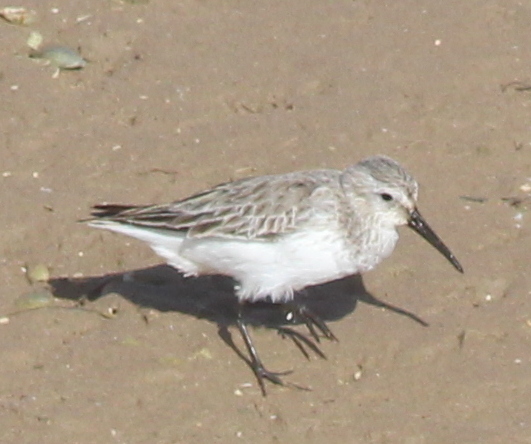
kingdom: Animalia
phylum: Chordata
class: Aves
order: Charadriiformes
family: Scolopacidae
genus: Calidris
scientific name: Calidris alpina
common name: Dunlin
